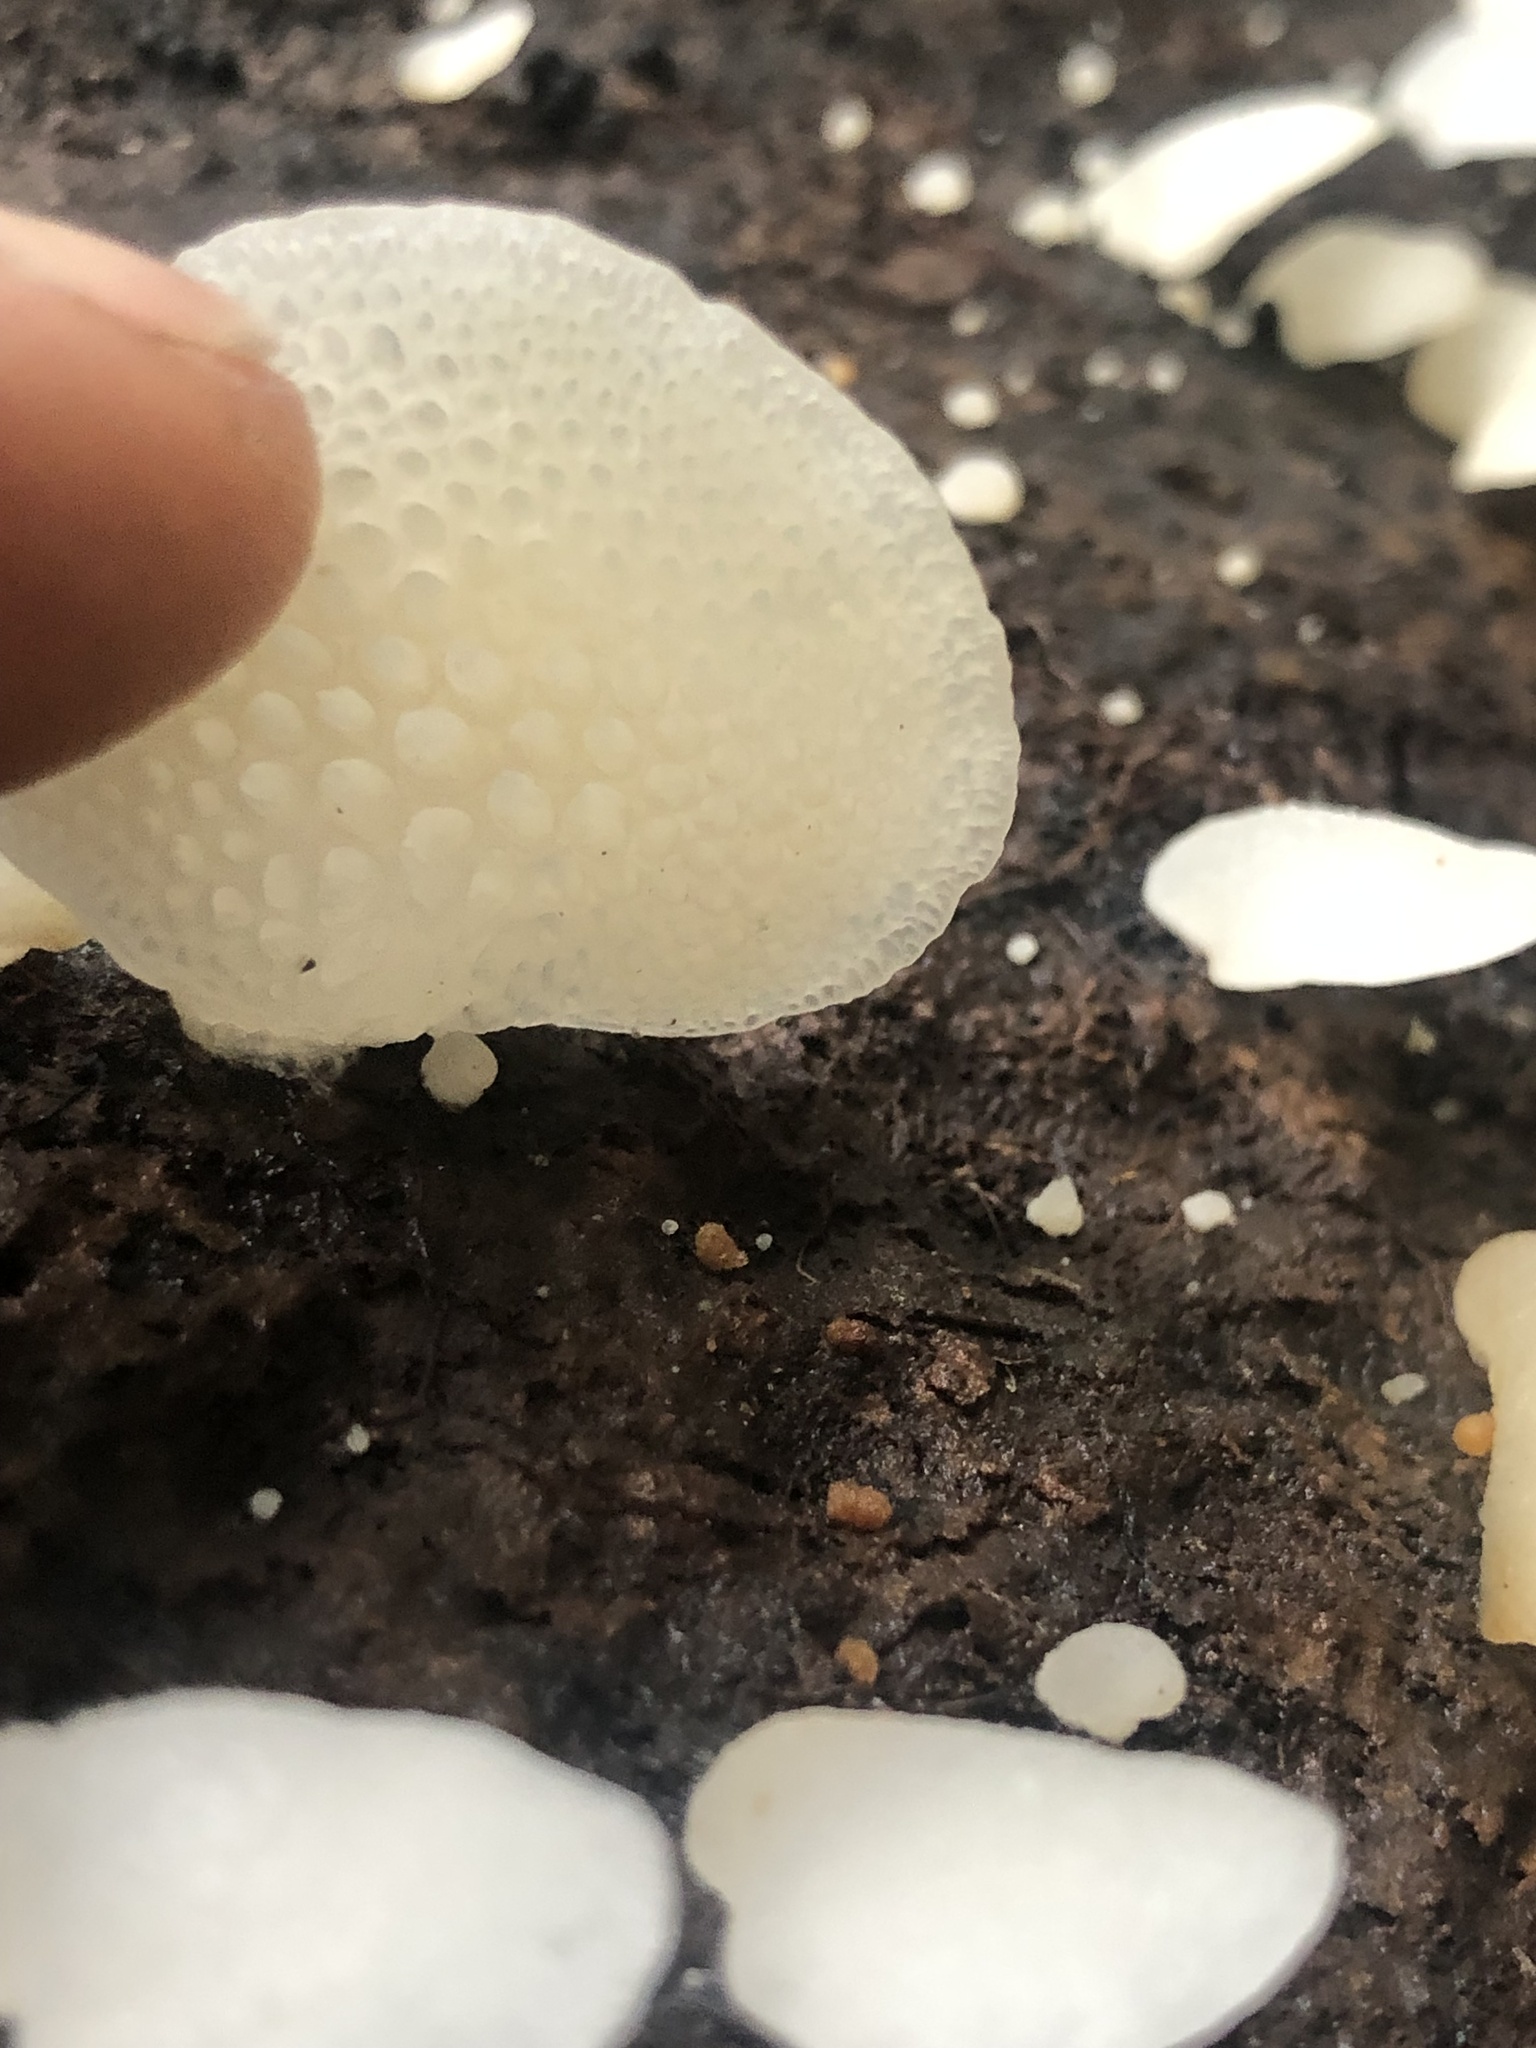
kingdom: Fungi
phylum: Basidiomycota
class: Agaricomycetes
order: Agaricales
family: Mycenaceae
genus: Favolaschia
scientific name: Favolaschia pustulosa
